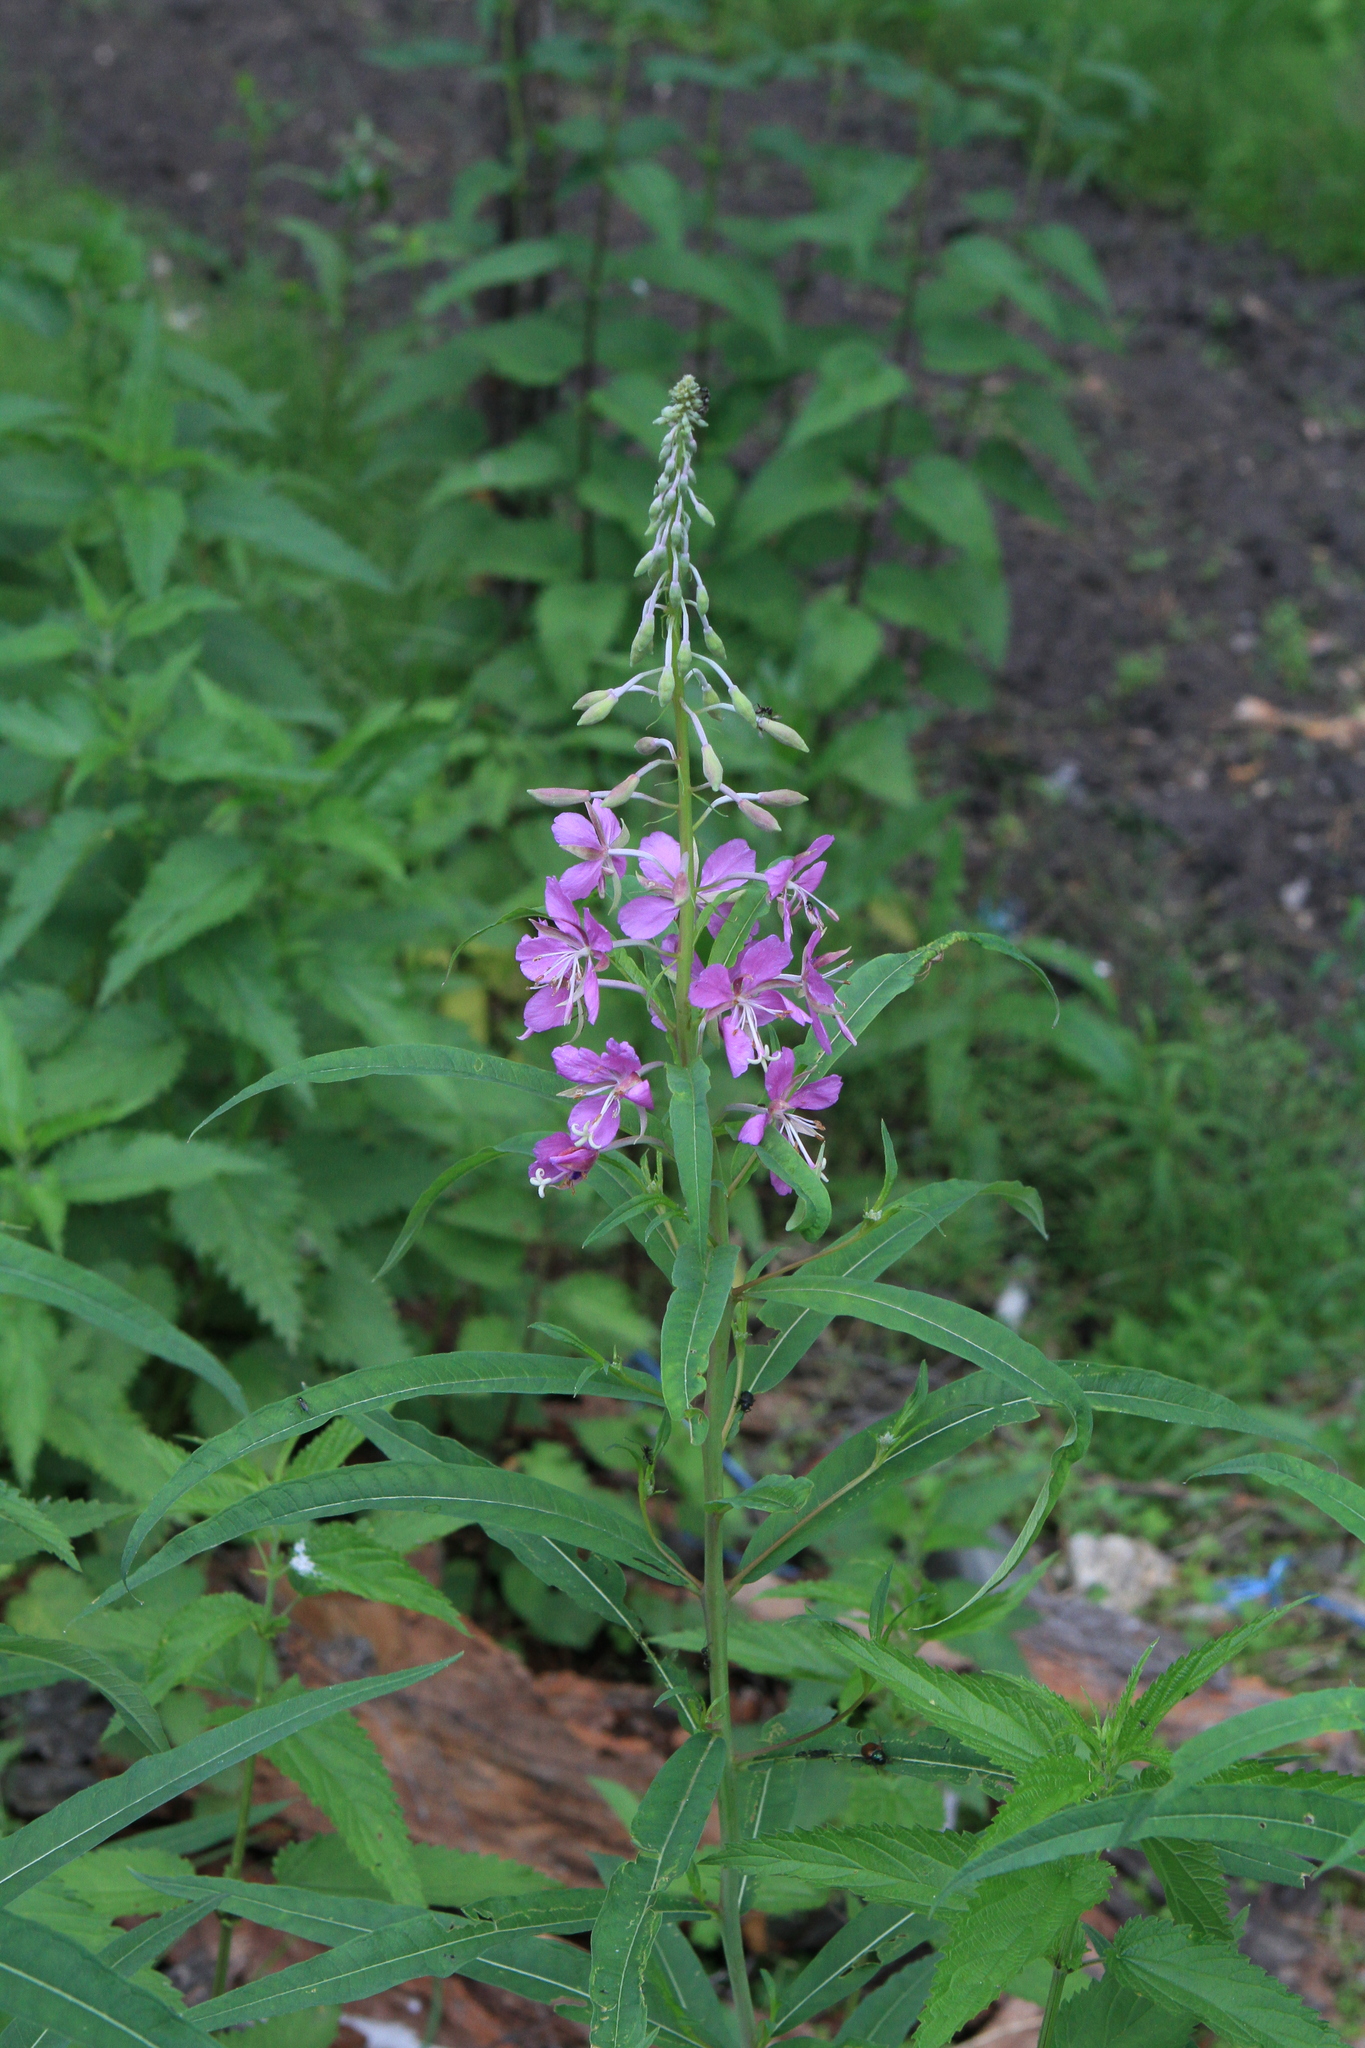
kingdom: Plantae
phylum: Tracheophyta
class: Magnoliopsida
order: Myrtales
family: Onagraceae
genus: Chamaenerion
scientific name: Chamaenerion angustifolium
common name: Fireweed
